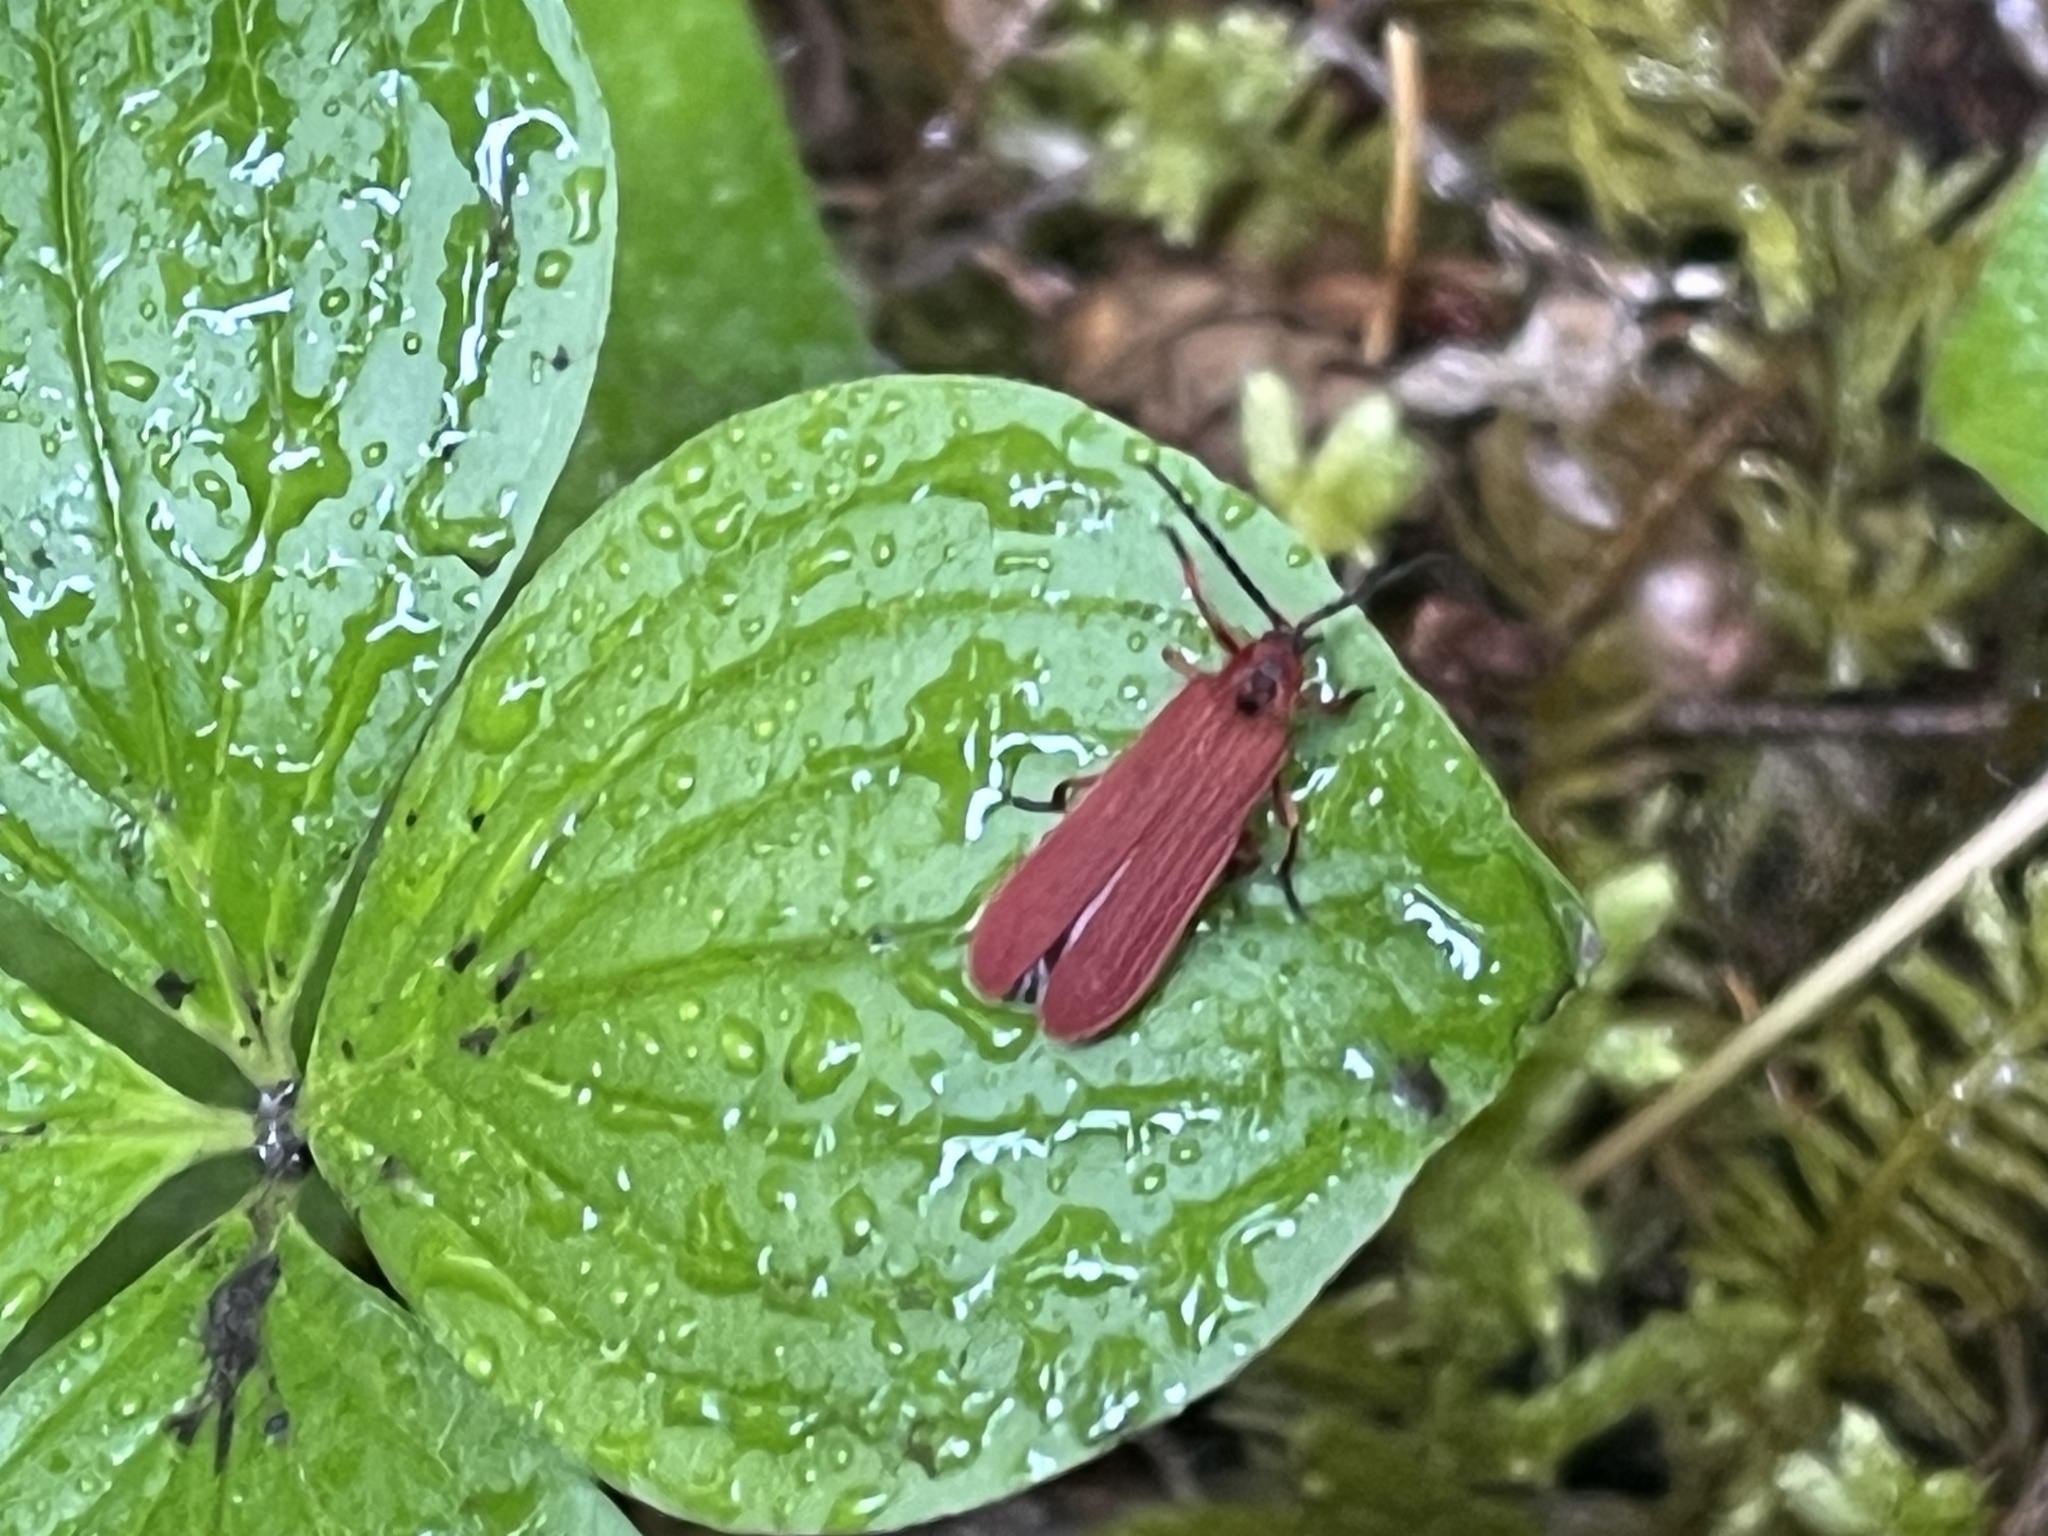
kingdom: Animalia
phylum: Arthropoda
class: Insecta
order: Coleoptera
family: Lycidae
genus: Dictyoptera
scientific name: Dictyoptera simplicipes
